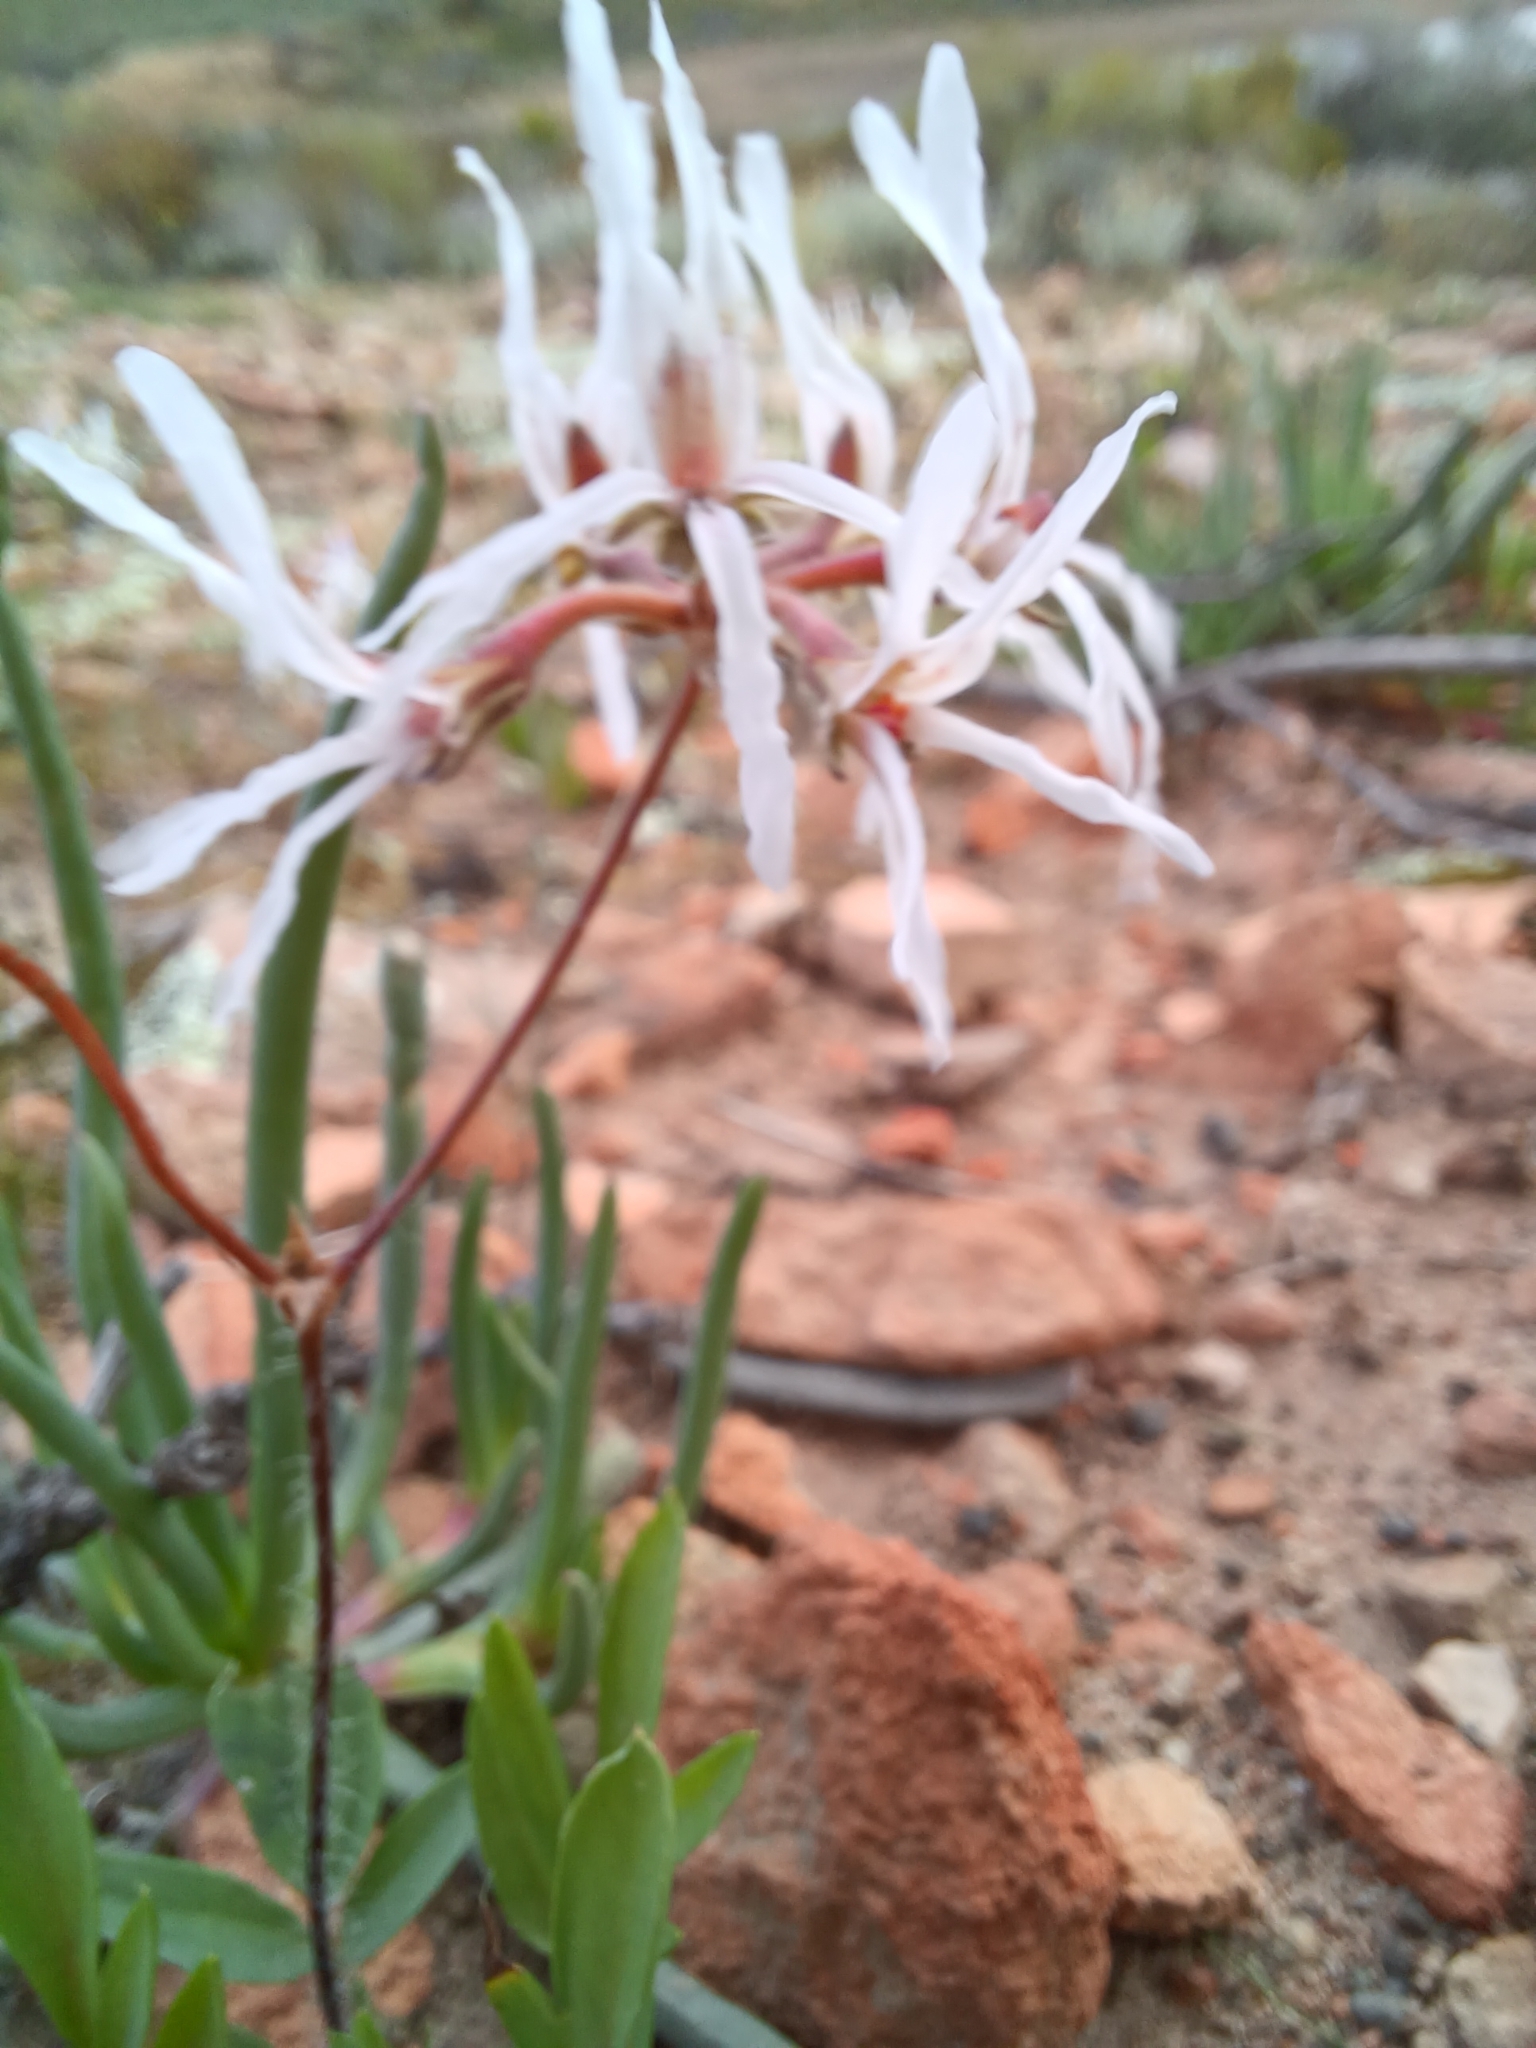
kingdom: Plantae
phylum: Tracheophyta
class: Magnoliopsida
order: Geraniales
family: Geraniaceae
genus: Pelargonium
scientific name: Pelargonium undulatum
